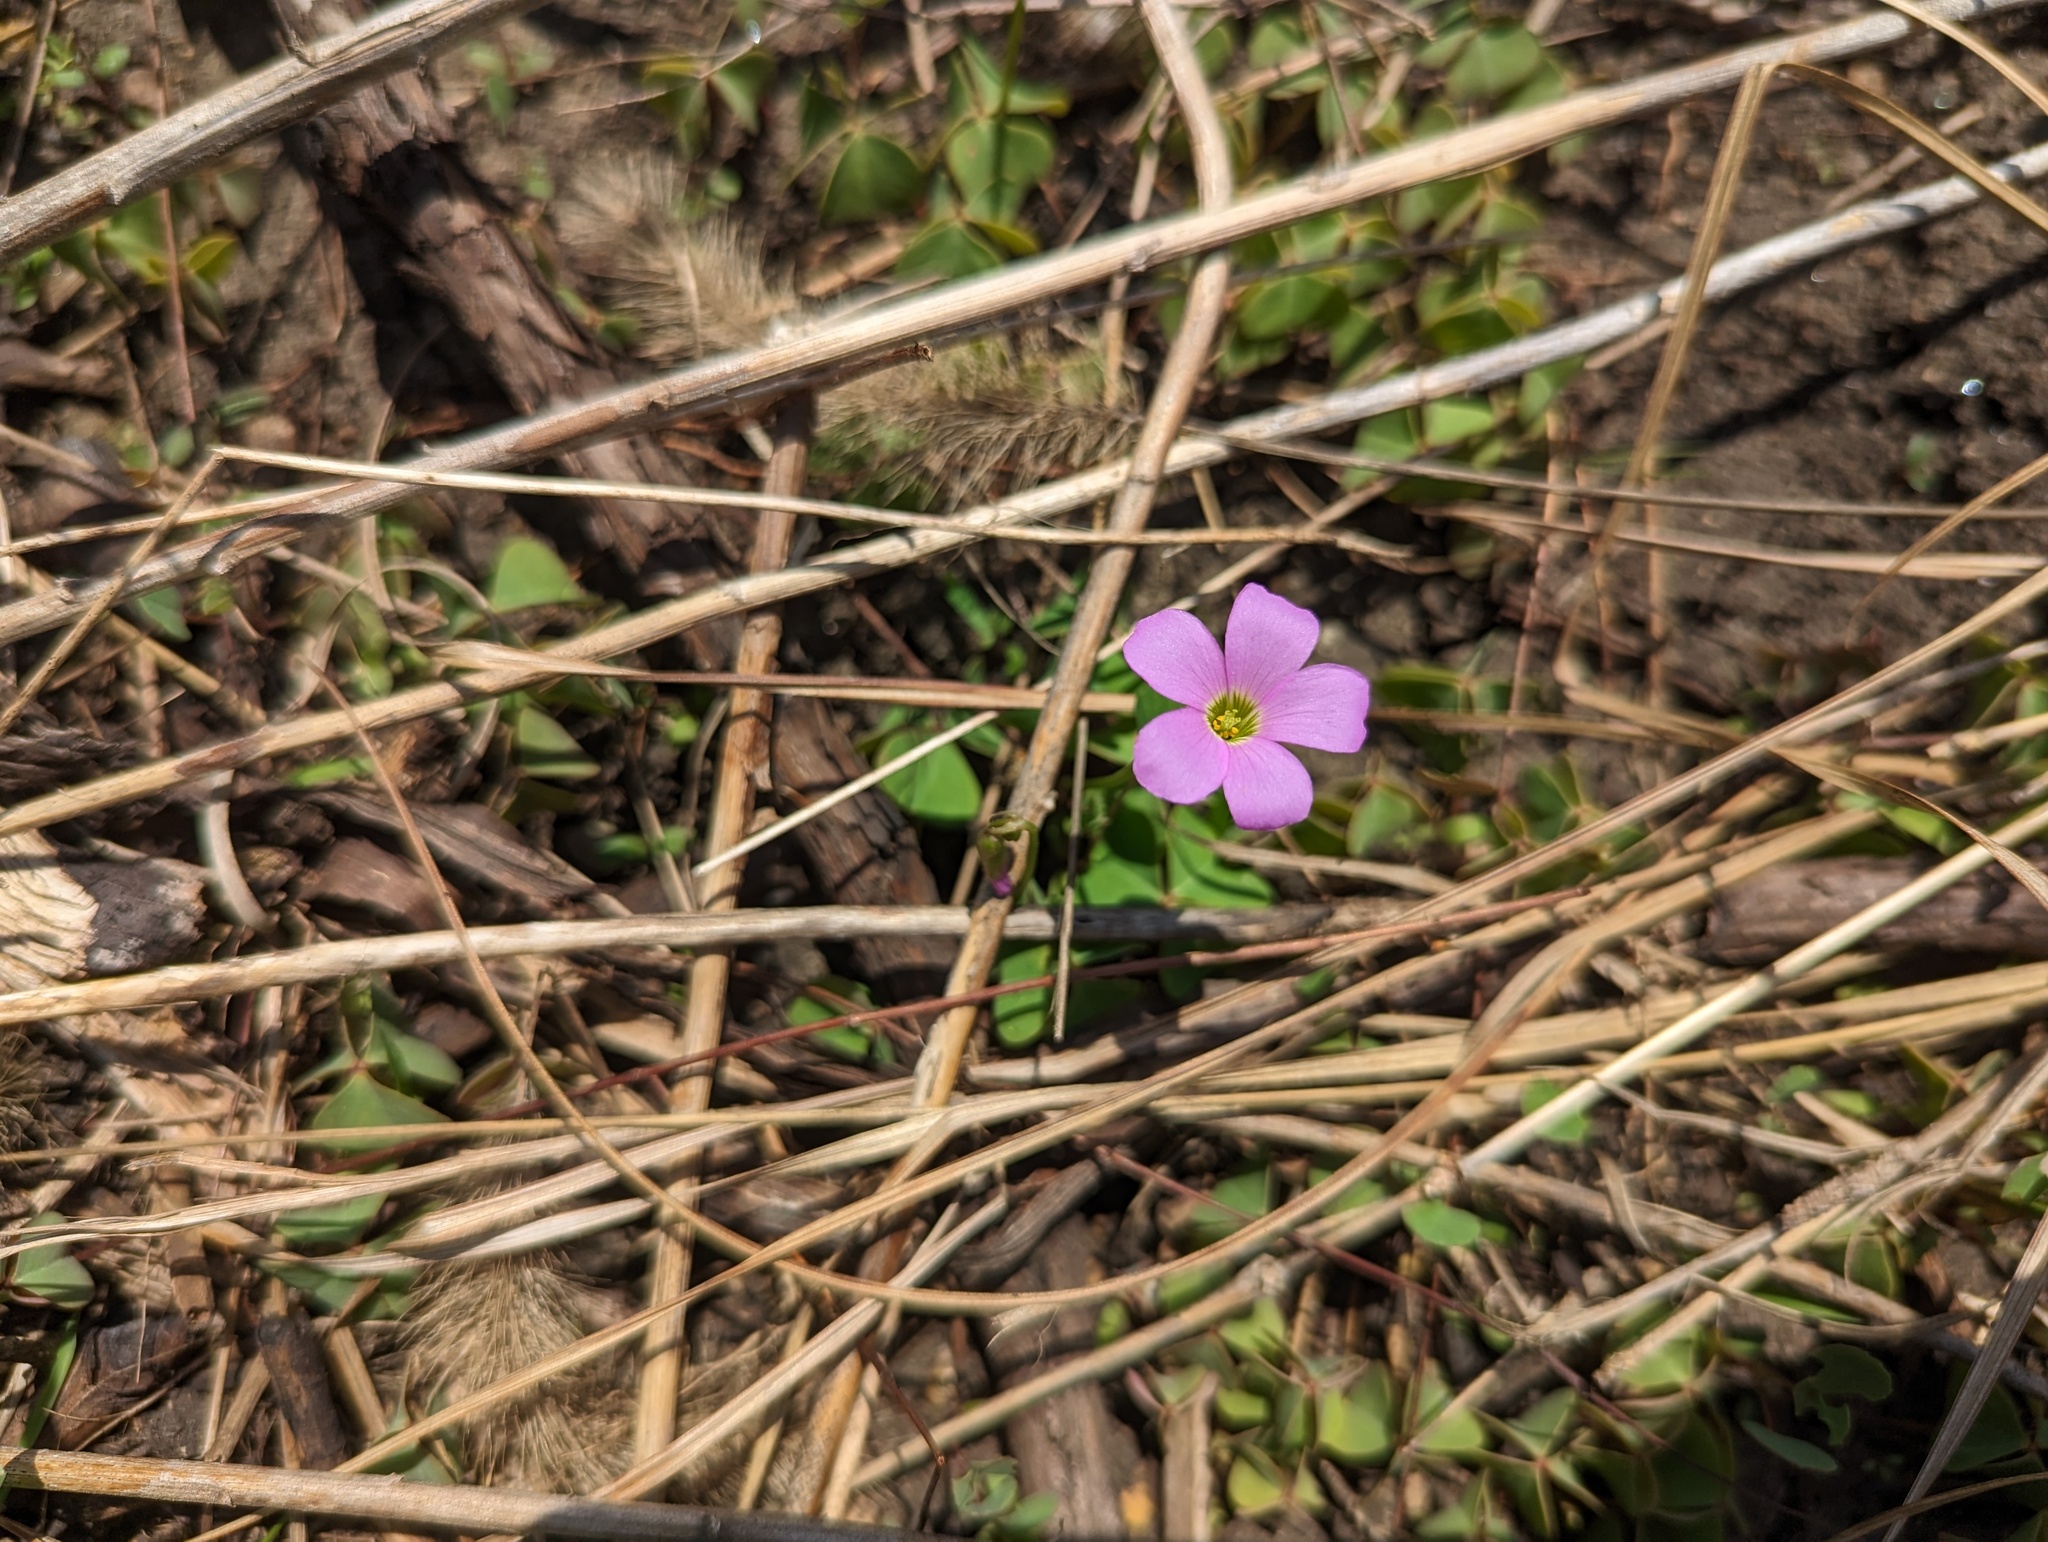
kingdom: Plantae
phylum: Tracheophyta
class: Magnoliopsida
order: Oxalidales
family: Oxalidaceae
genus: Oxalis
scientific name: Oxalis violacea
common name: Violet wood-sorrel
